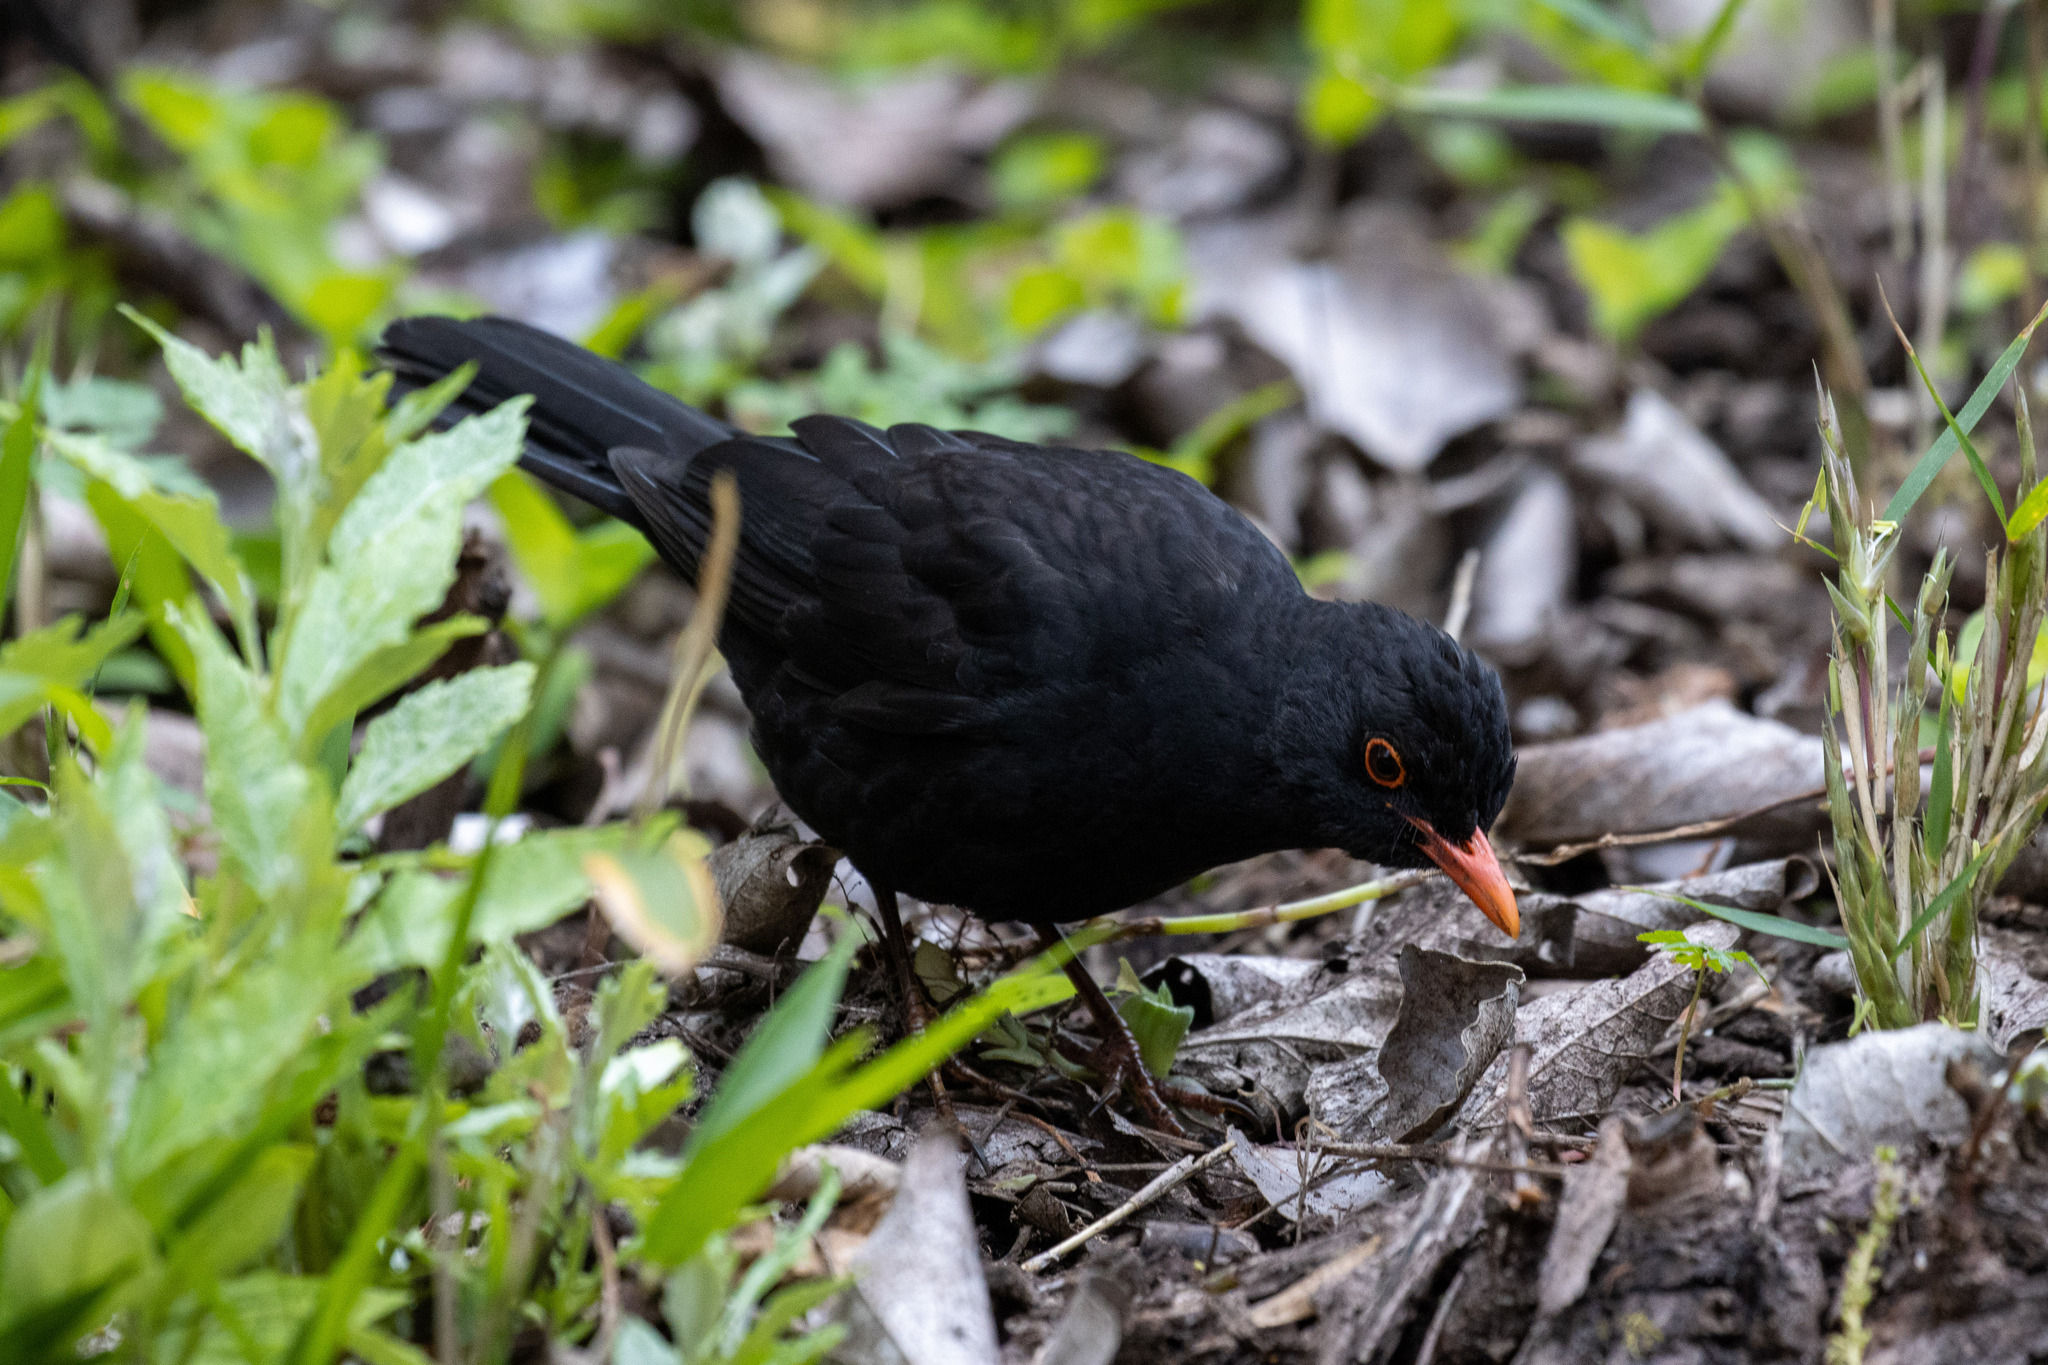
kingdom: Animalia
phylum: Chordata
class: Aves
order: Passeriformes
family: Turdidae
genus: Turdus
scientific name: Turdus merula
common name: Common blackbird
